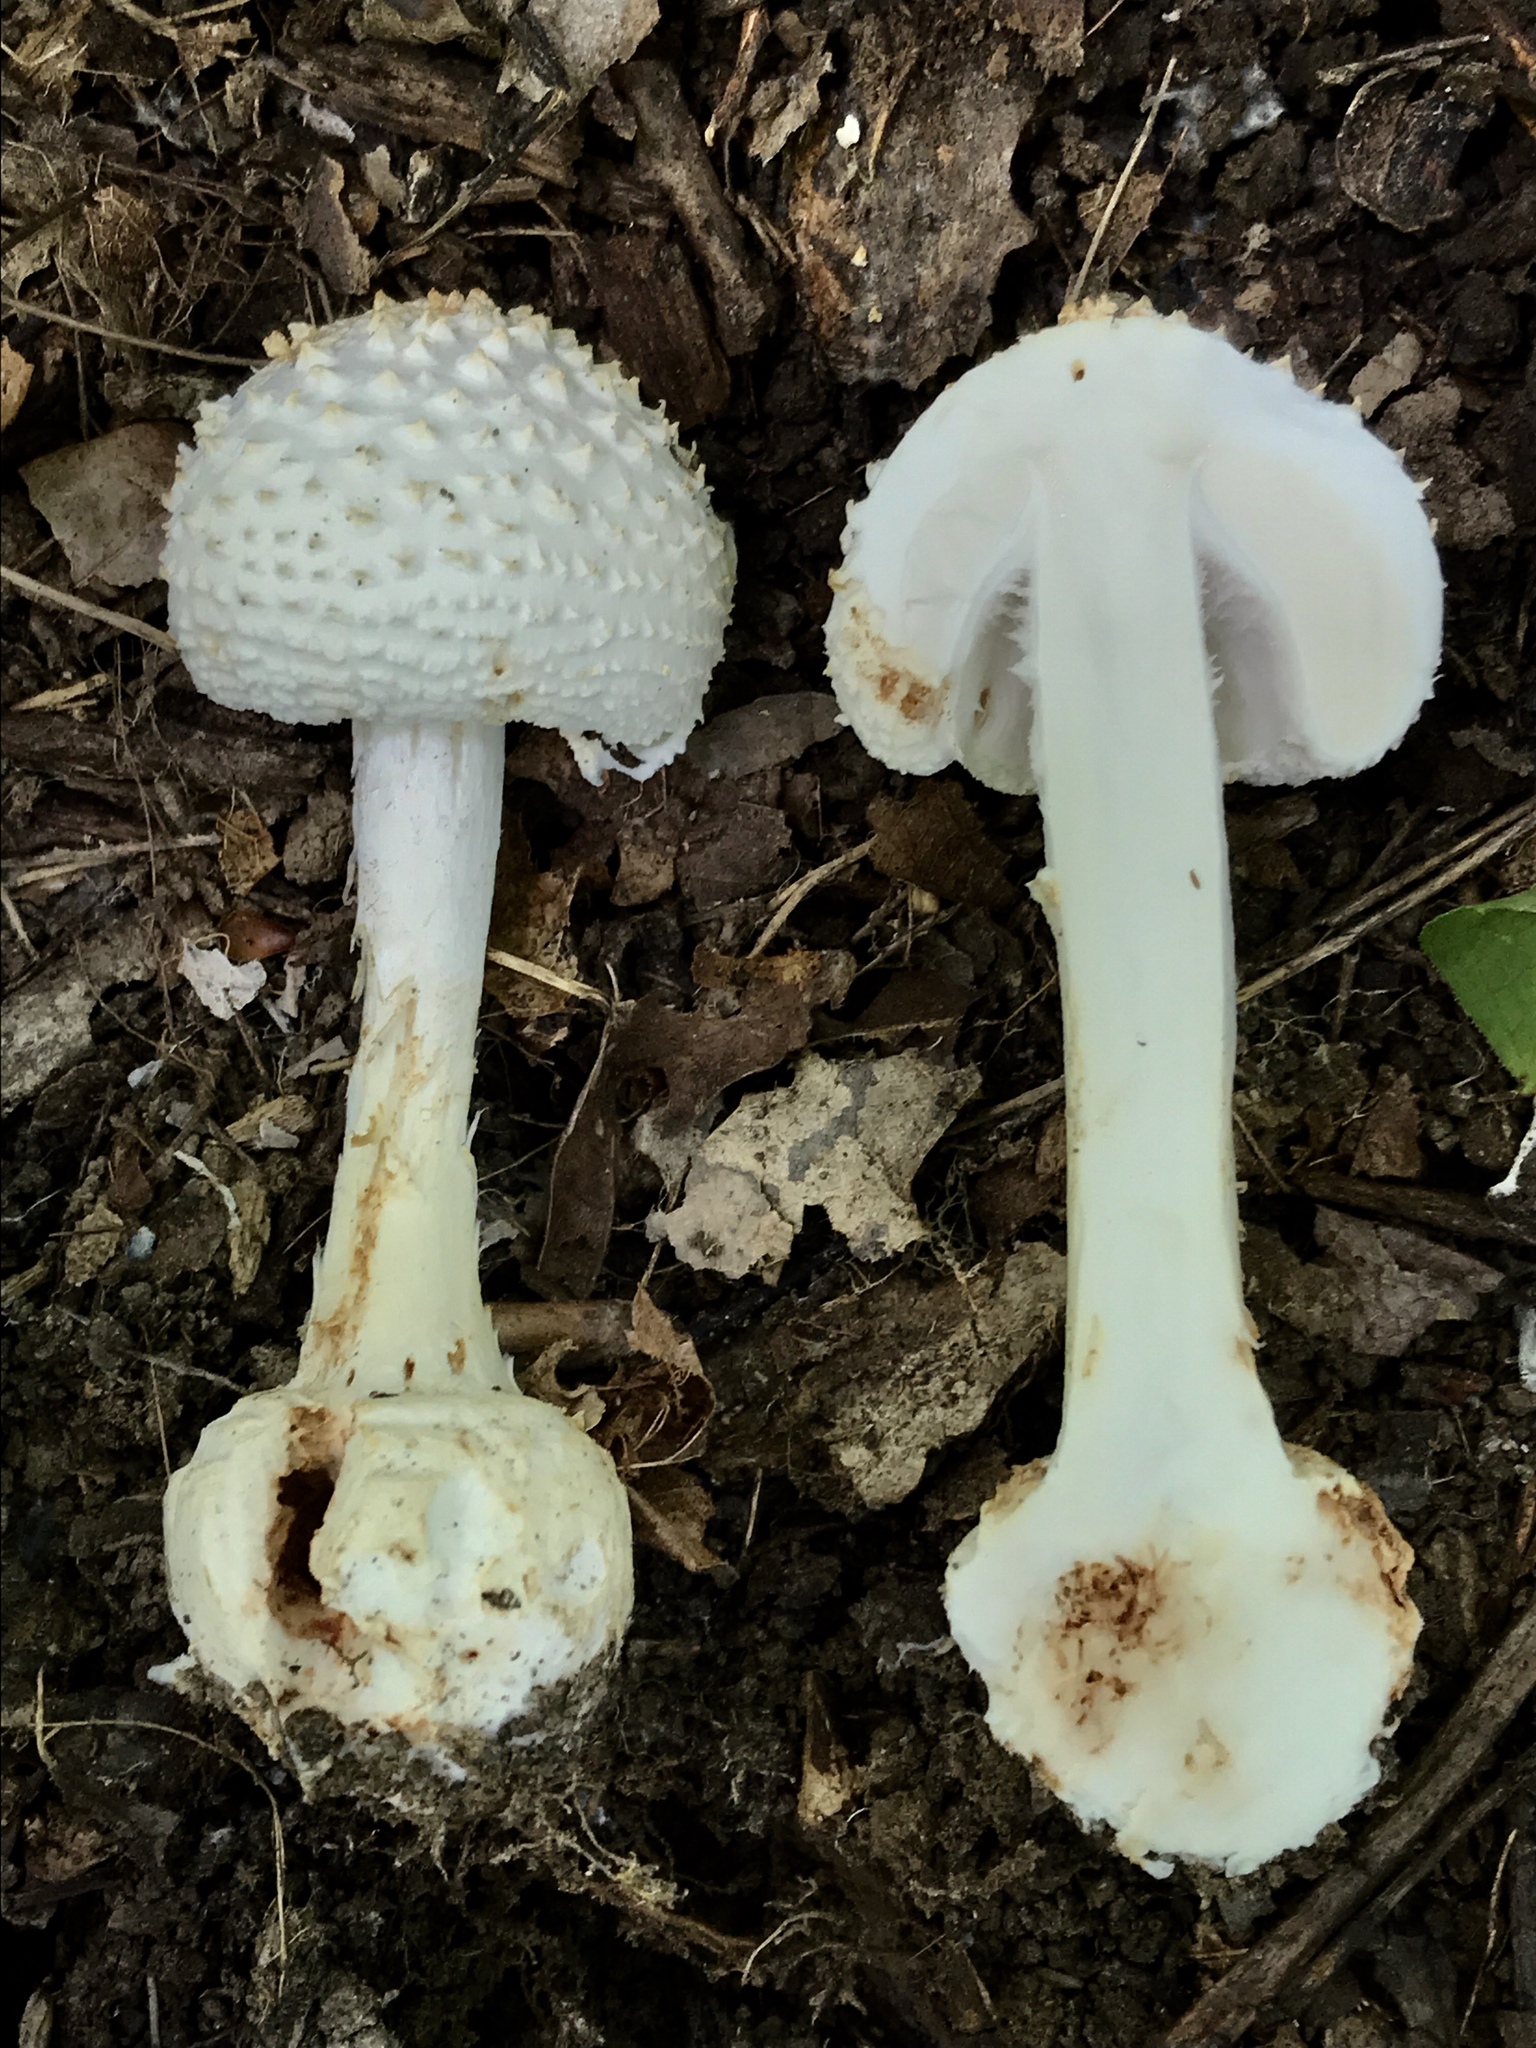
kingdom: Fungi
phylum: Basidiomycota
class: Agaricomycetes
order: Agaricales
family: Amanitaceae
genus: Amanita
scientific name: Amanita abrupta
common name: American abrupt-bulbed lepidella
